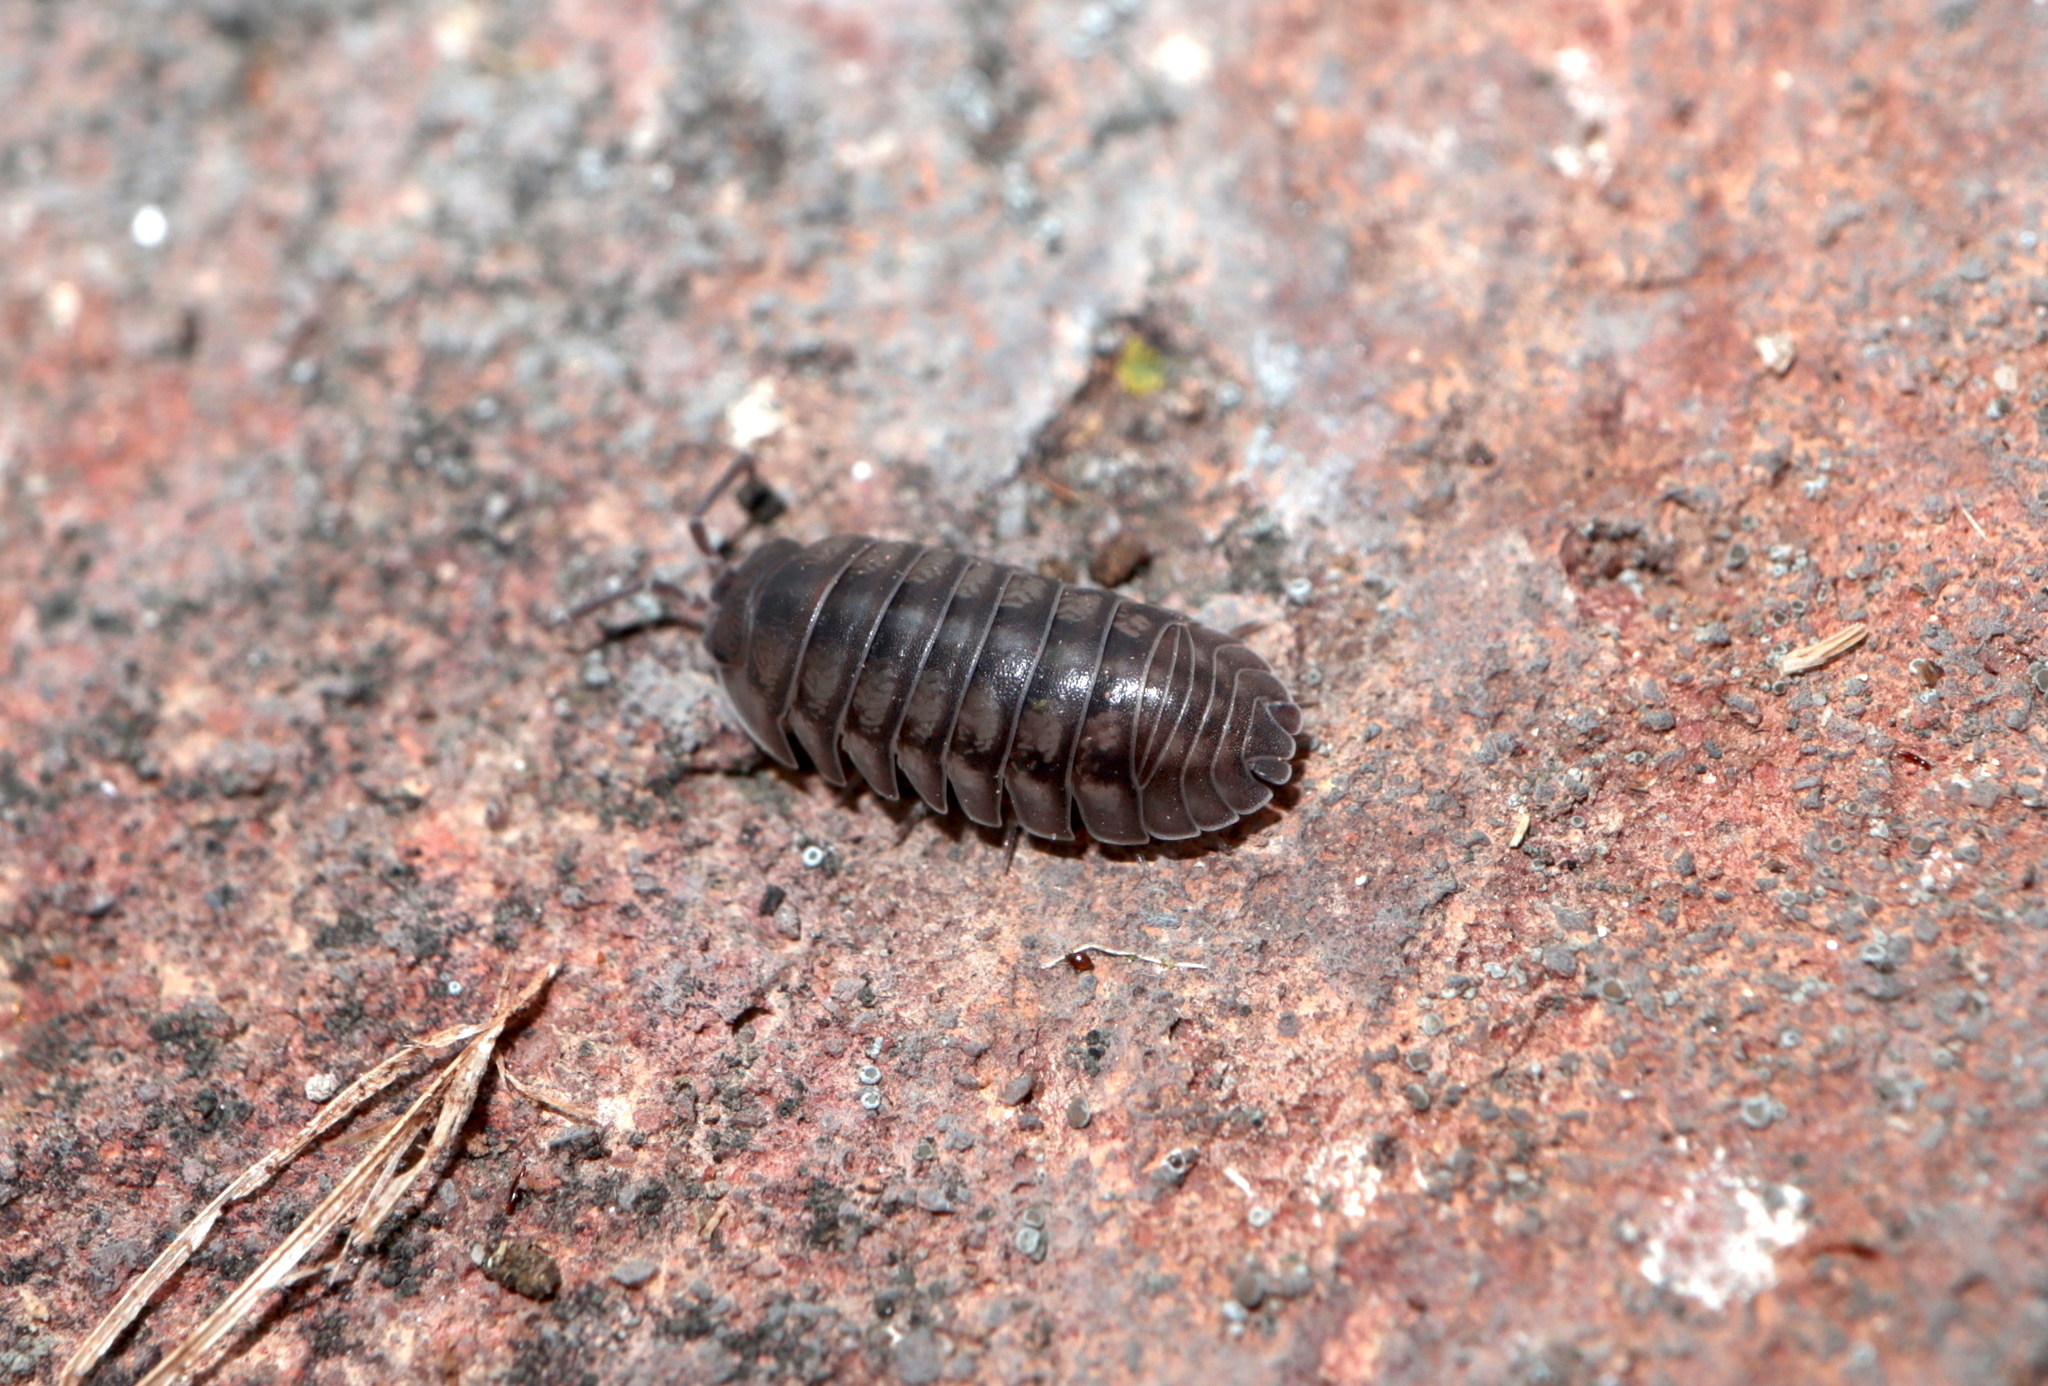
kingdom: Animalia
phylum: Arthropoda
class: Malacostraca
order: Isopoda
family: Armadillidiidae
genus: Armadillidium
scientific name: Armadillidium nasatum
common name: Isopod
